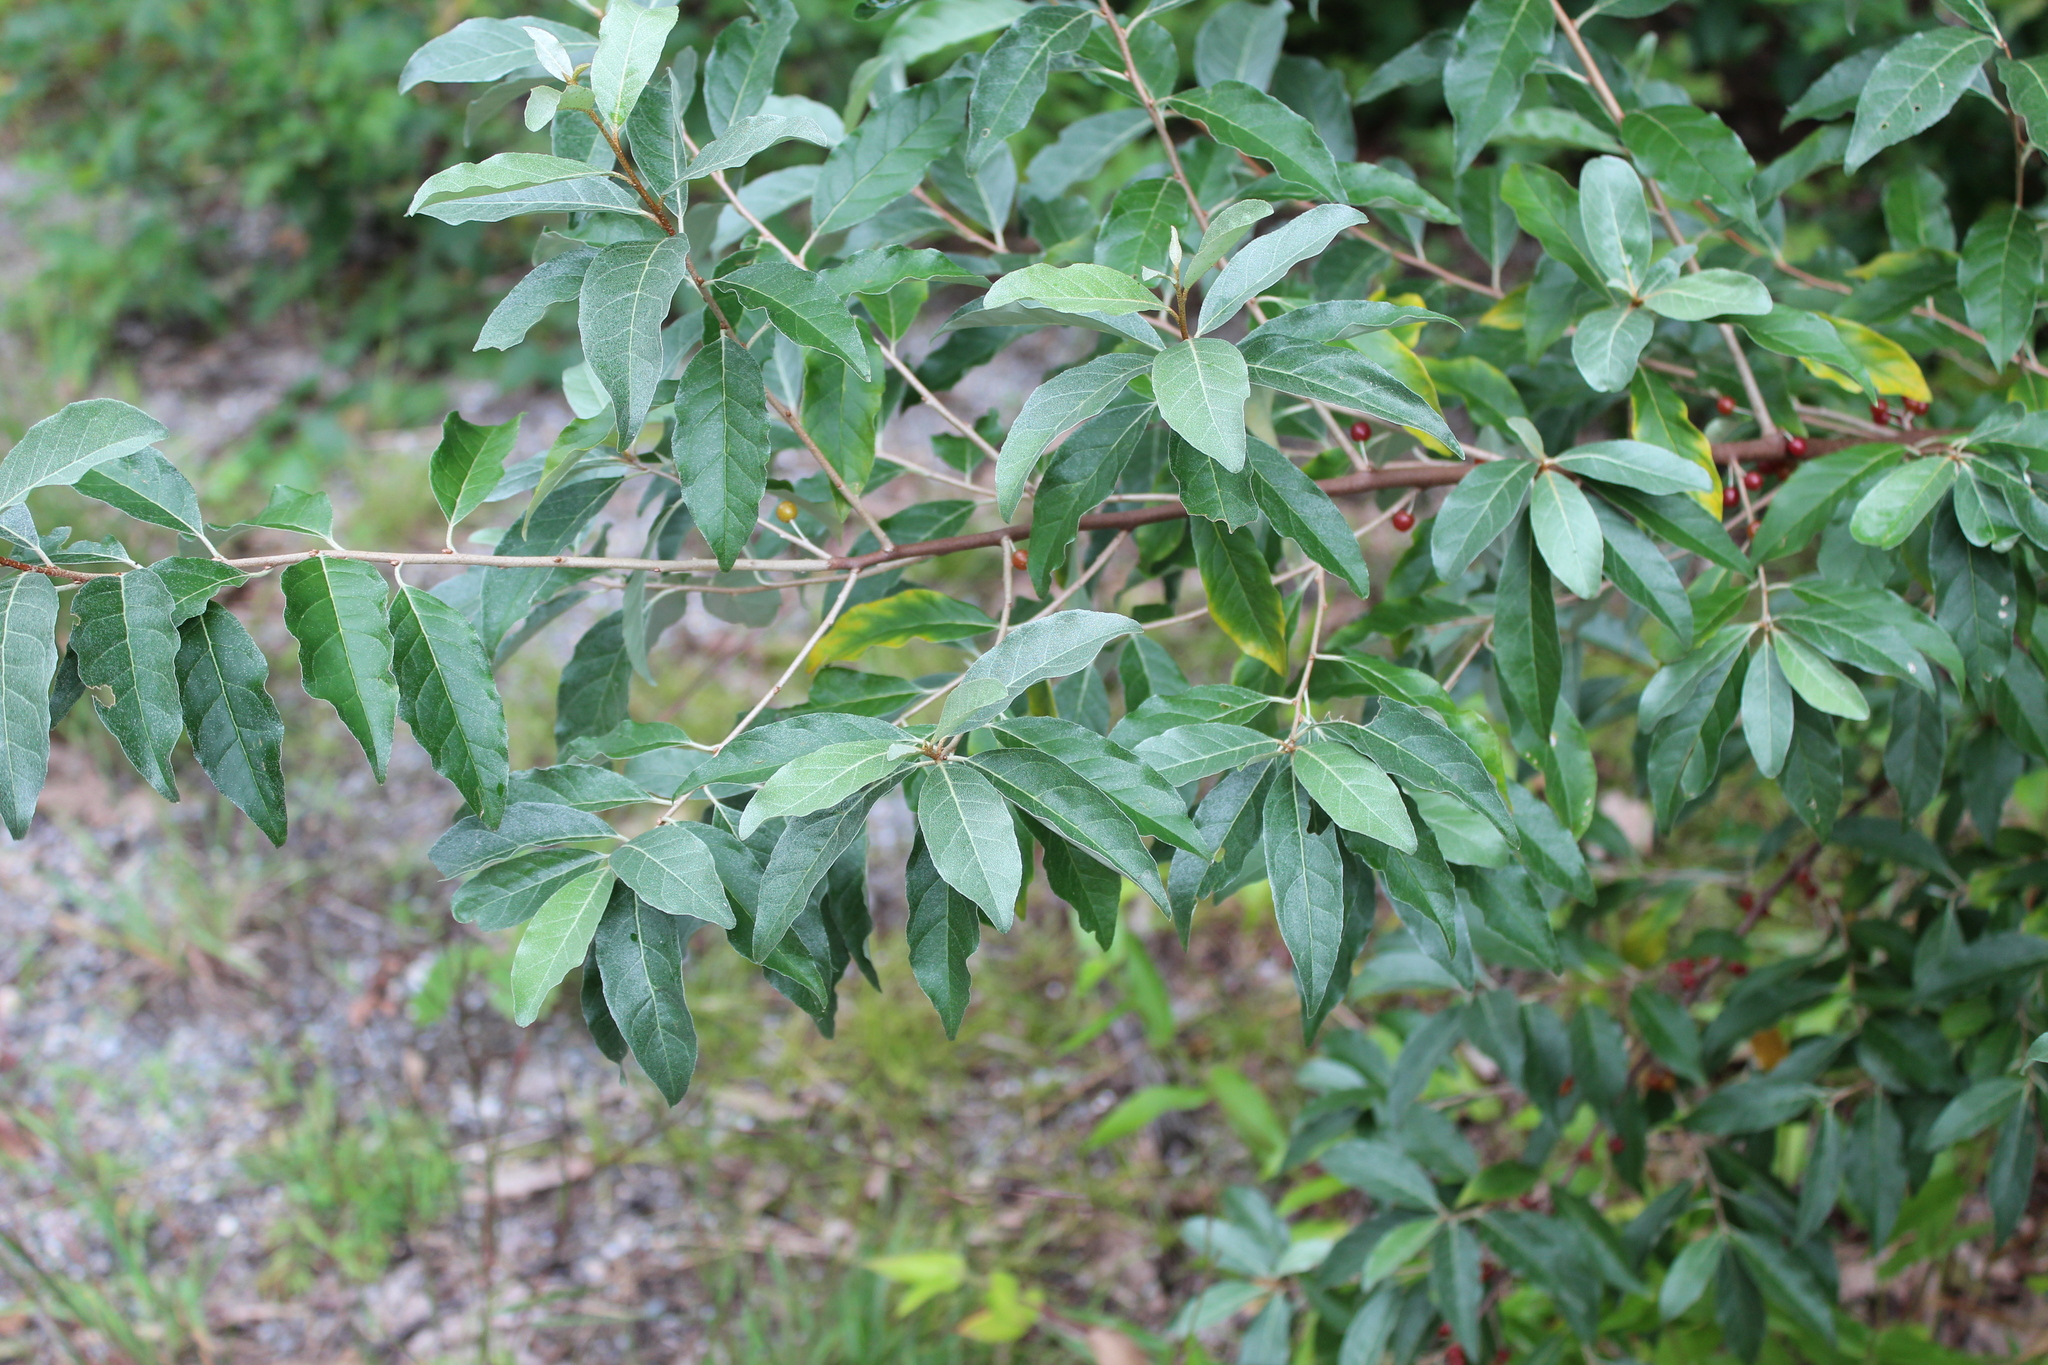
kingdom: Plantae
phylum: Tracheophyta
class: Magnoliopsida
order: Rosales
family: Elaeagnaceae
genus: Elaeagnus
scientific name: Elaeagnus umbellata
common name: Autumn olive
